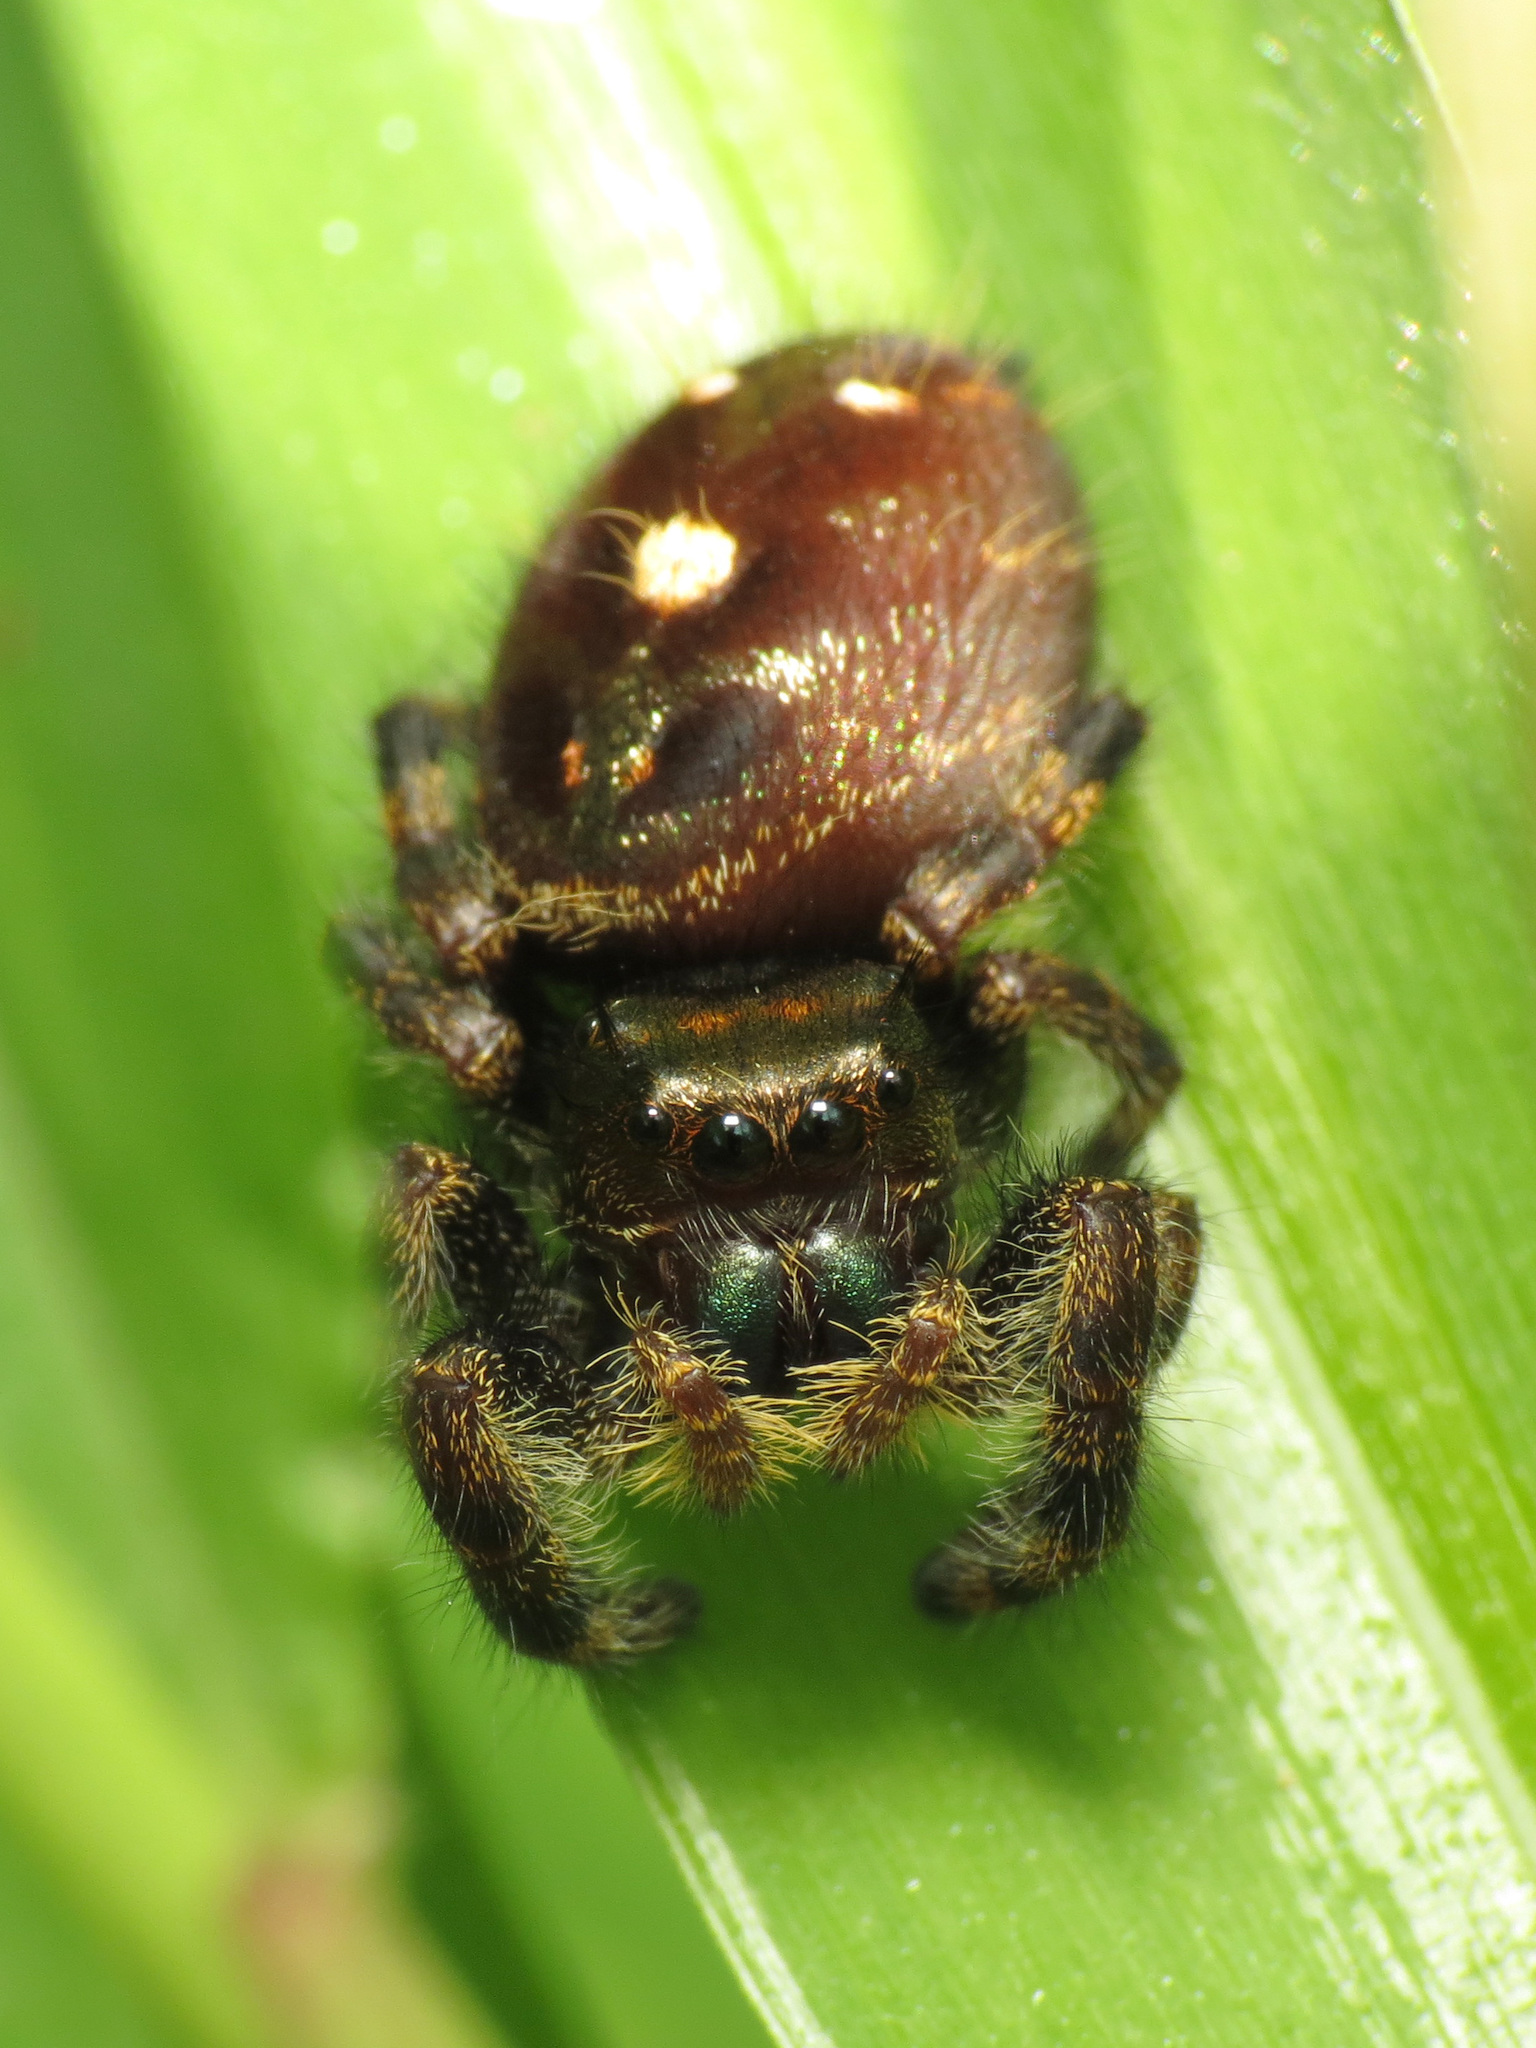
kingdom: Animalia
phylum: Arthropoda
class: Arachnida
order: Araneae
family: Salticidae
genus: Phidippus
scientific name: Phidippus audax
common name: Bold jumper
